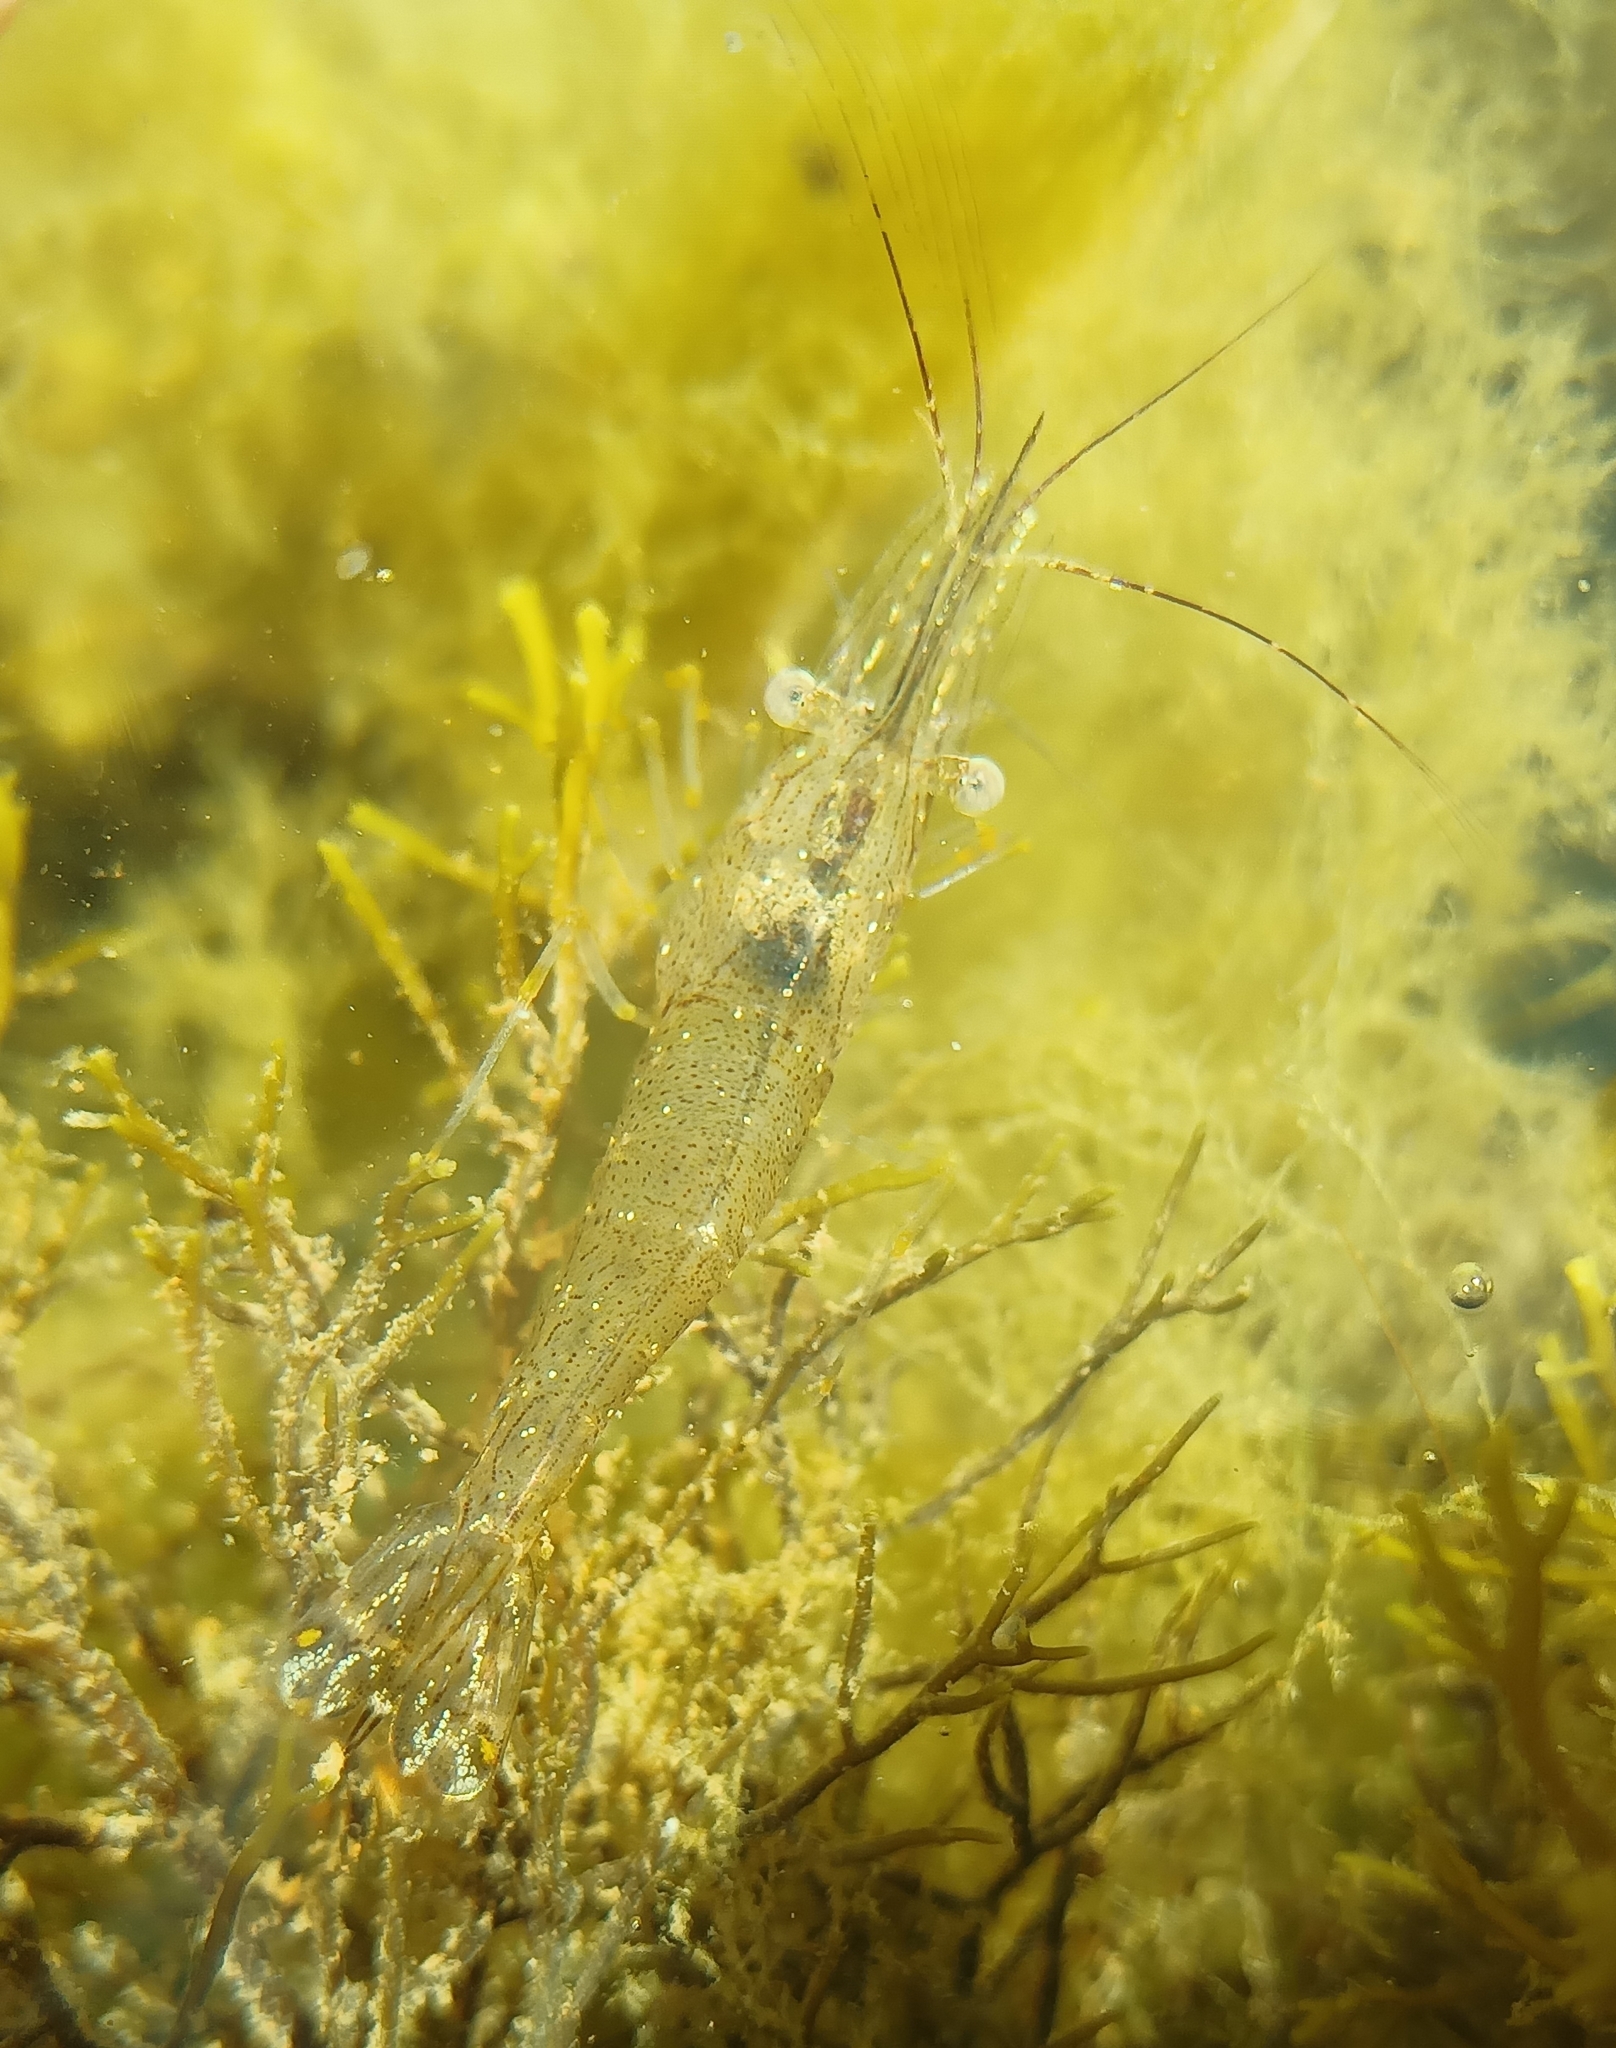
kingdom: Animalia
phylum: Arthropoda
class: Malacostraca
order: Decapoda
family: Palaemonidae
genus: Palaemon
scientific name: Palaemon adspersus
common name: Baltic prawn
